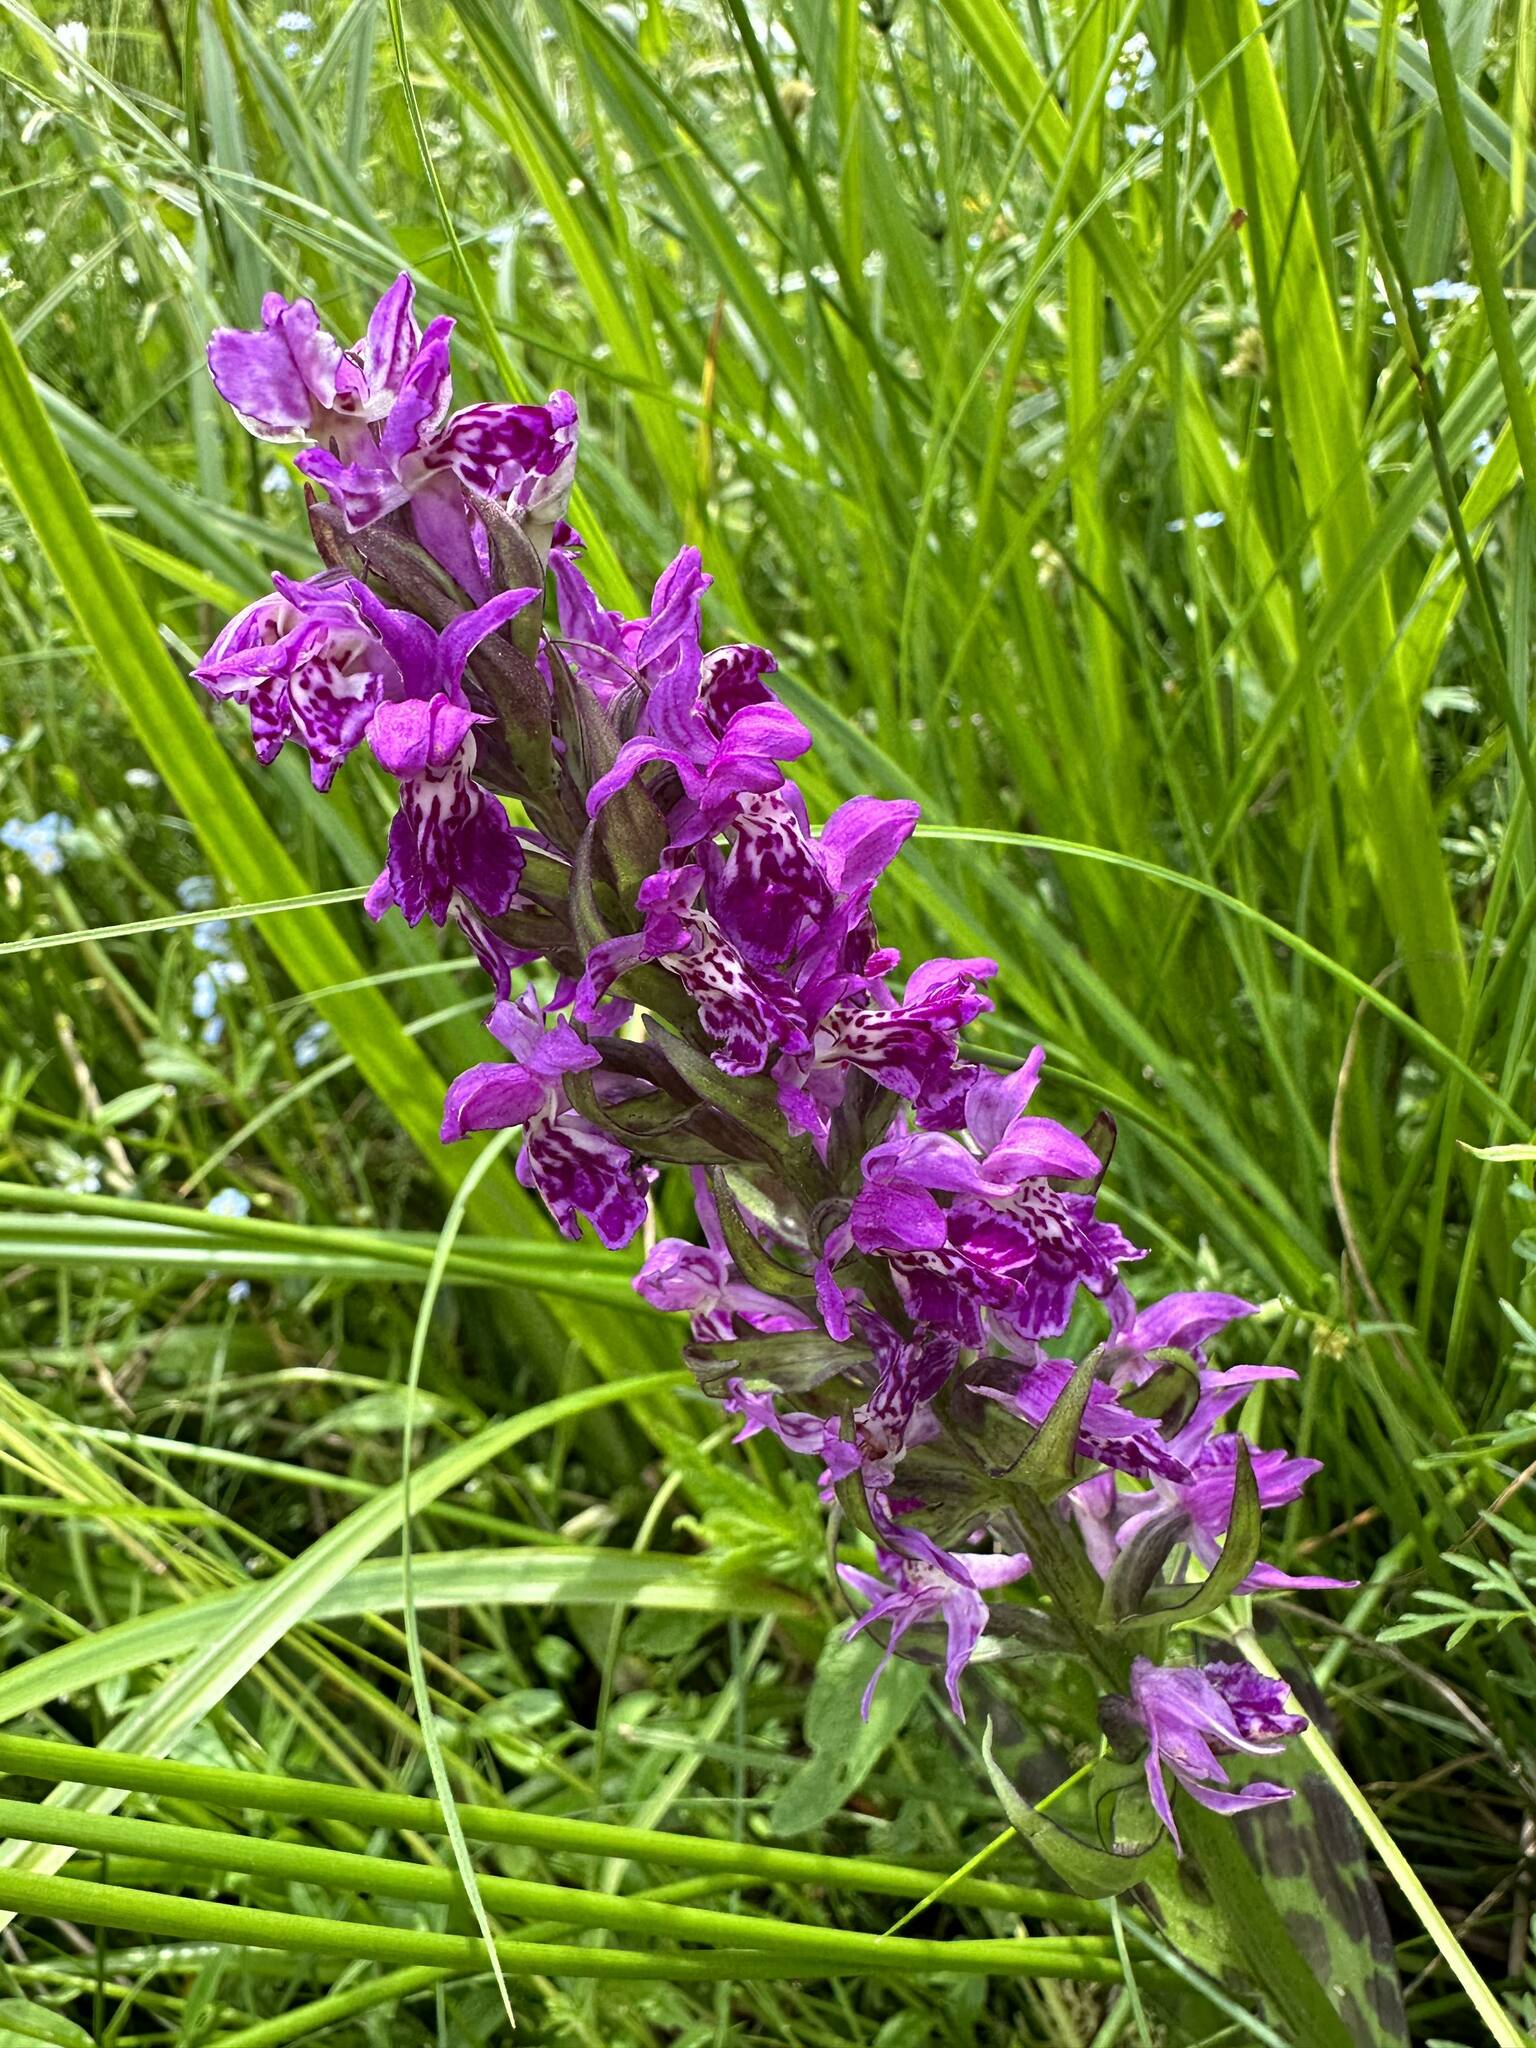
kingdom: Plantae
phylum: Tracheophyta
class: Liliopsida
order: Asparagales
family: Orchidaceae
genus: Dactylorhiza
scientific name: Dactylorhiza majalis
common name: Marsh orchid
